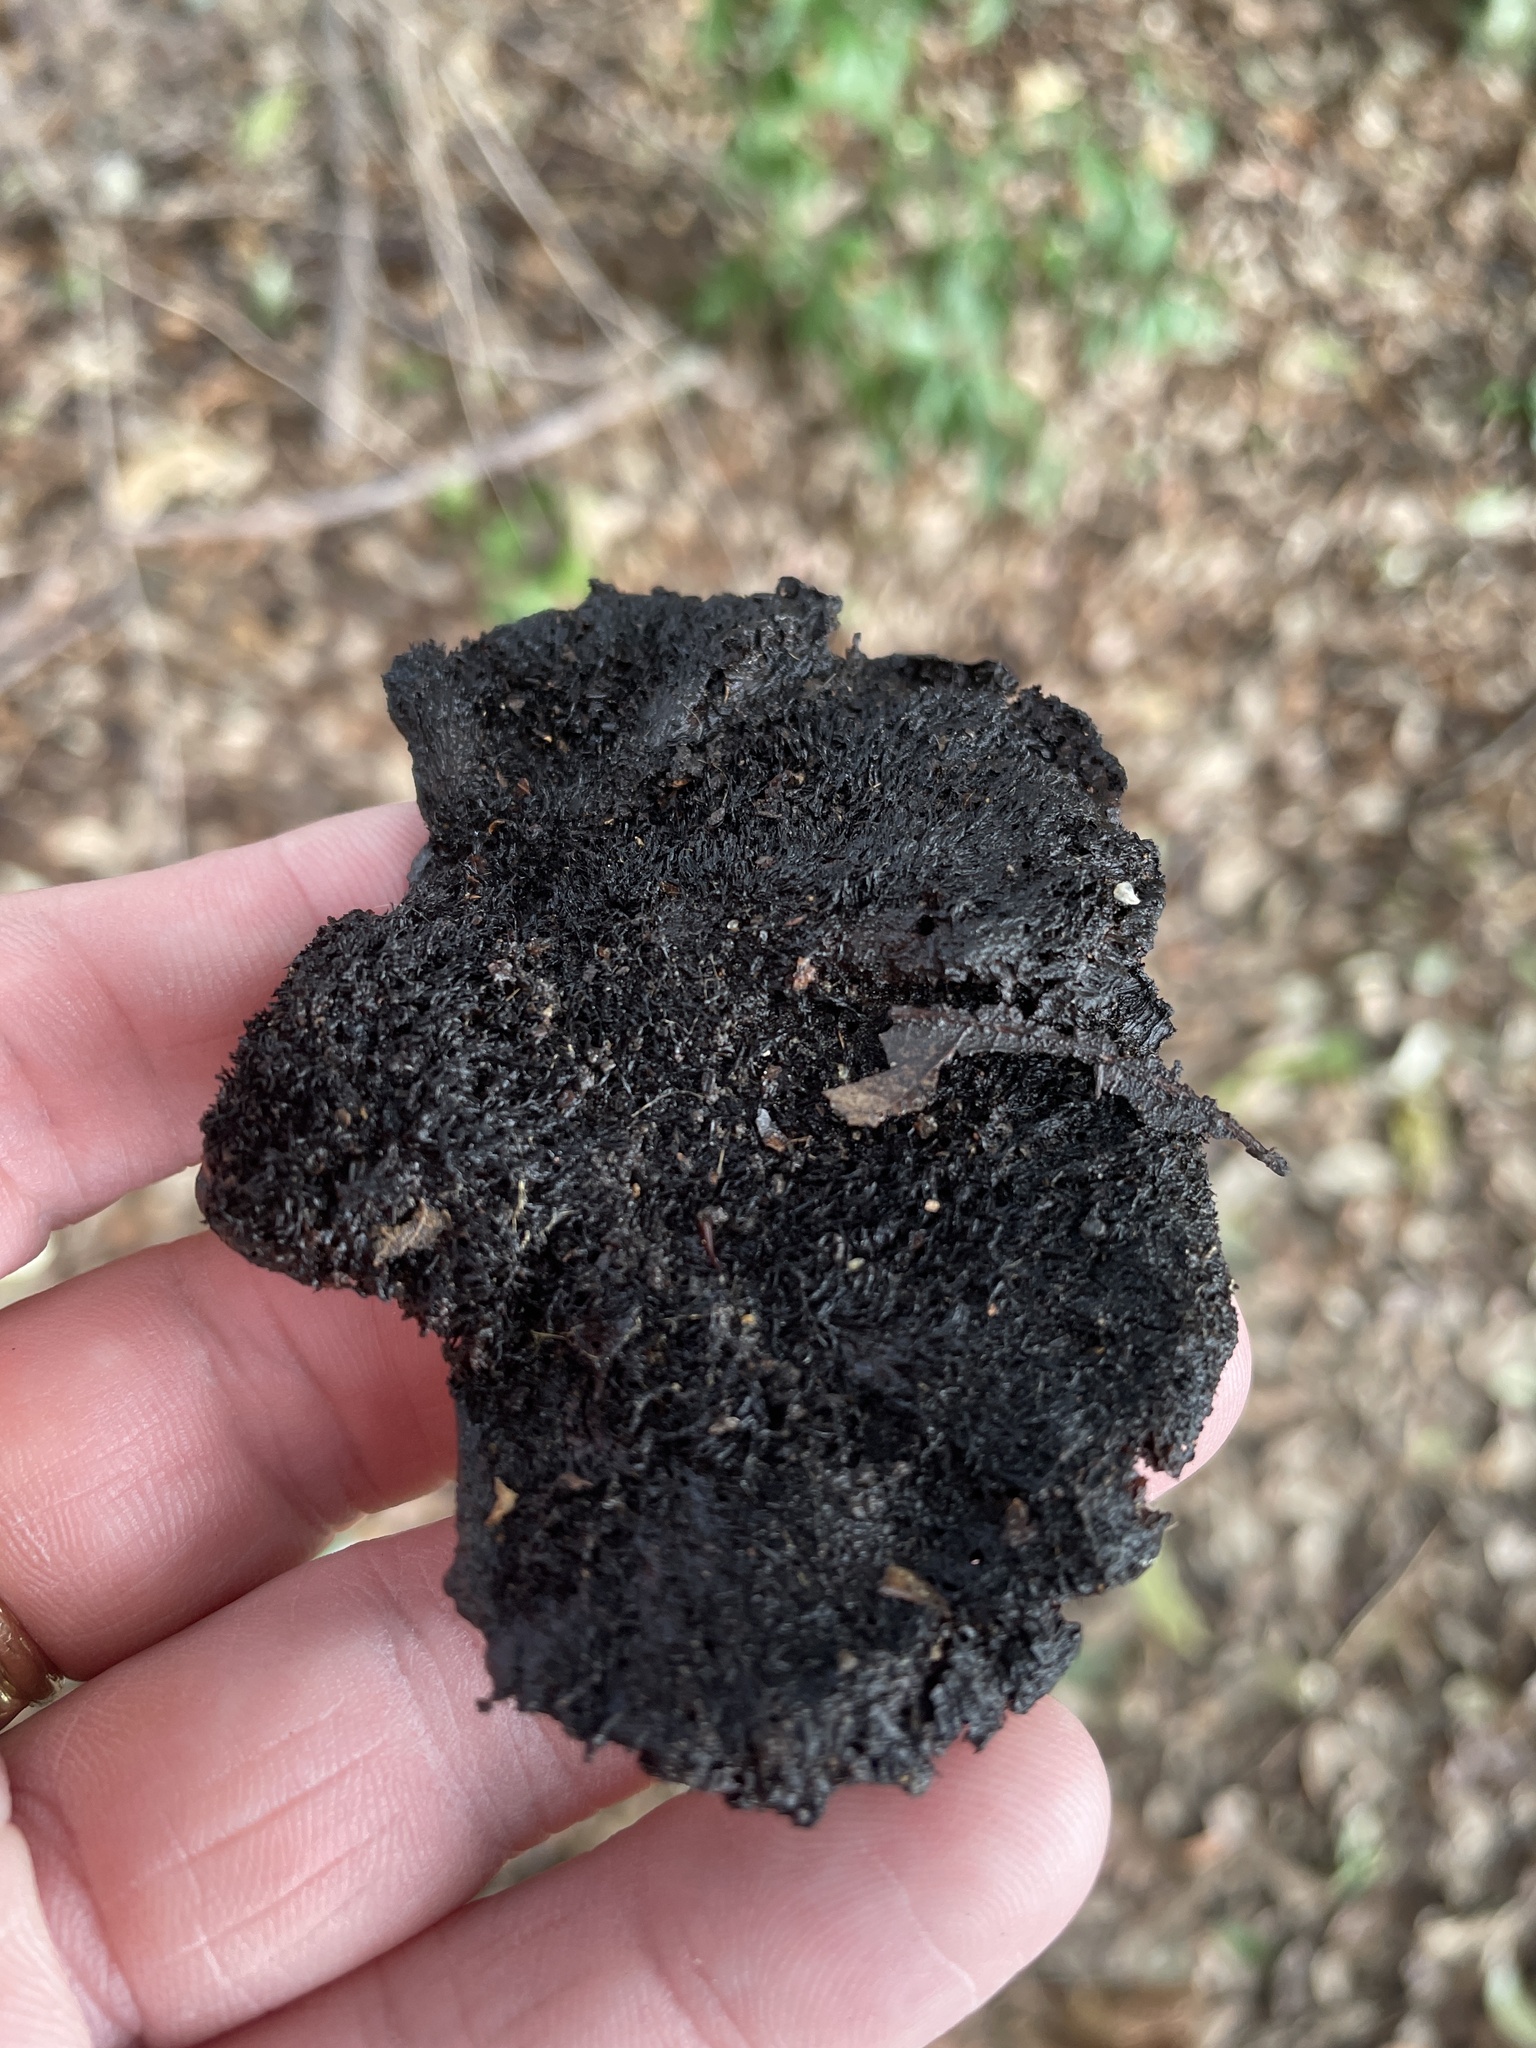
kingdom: Fungi
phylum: Basidiomycota
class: Agaricomycetes
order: Polyporales
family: Cerrenaceae
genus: Cerrena
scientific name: Cerrena hydnoides
